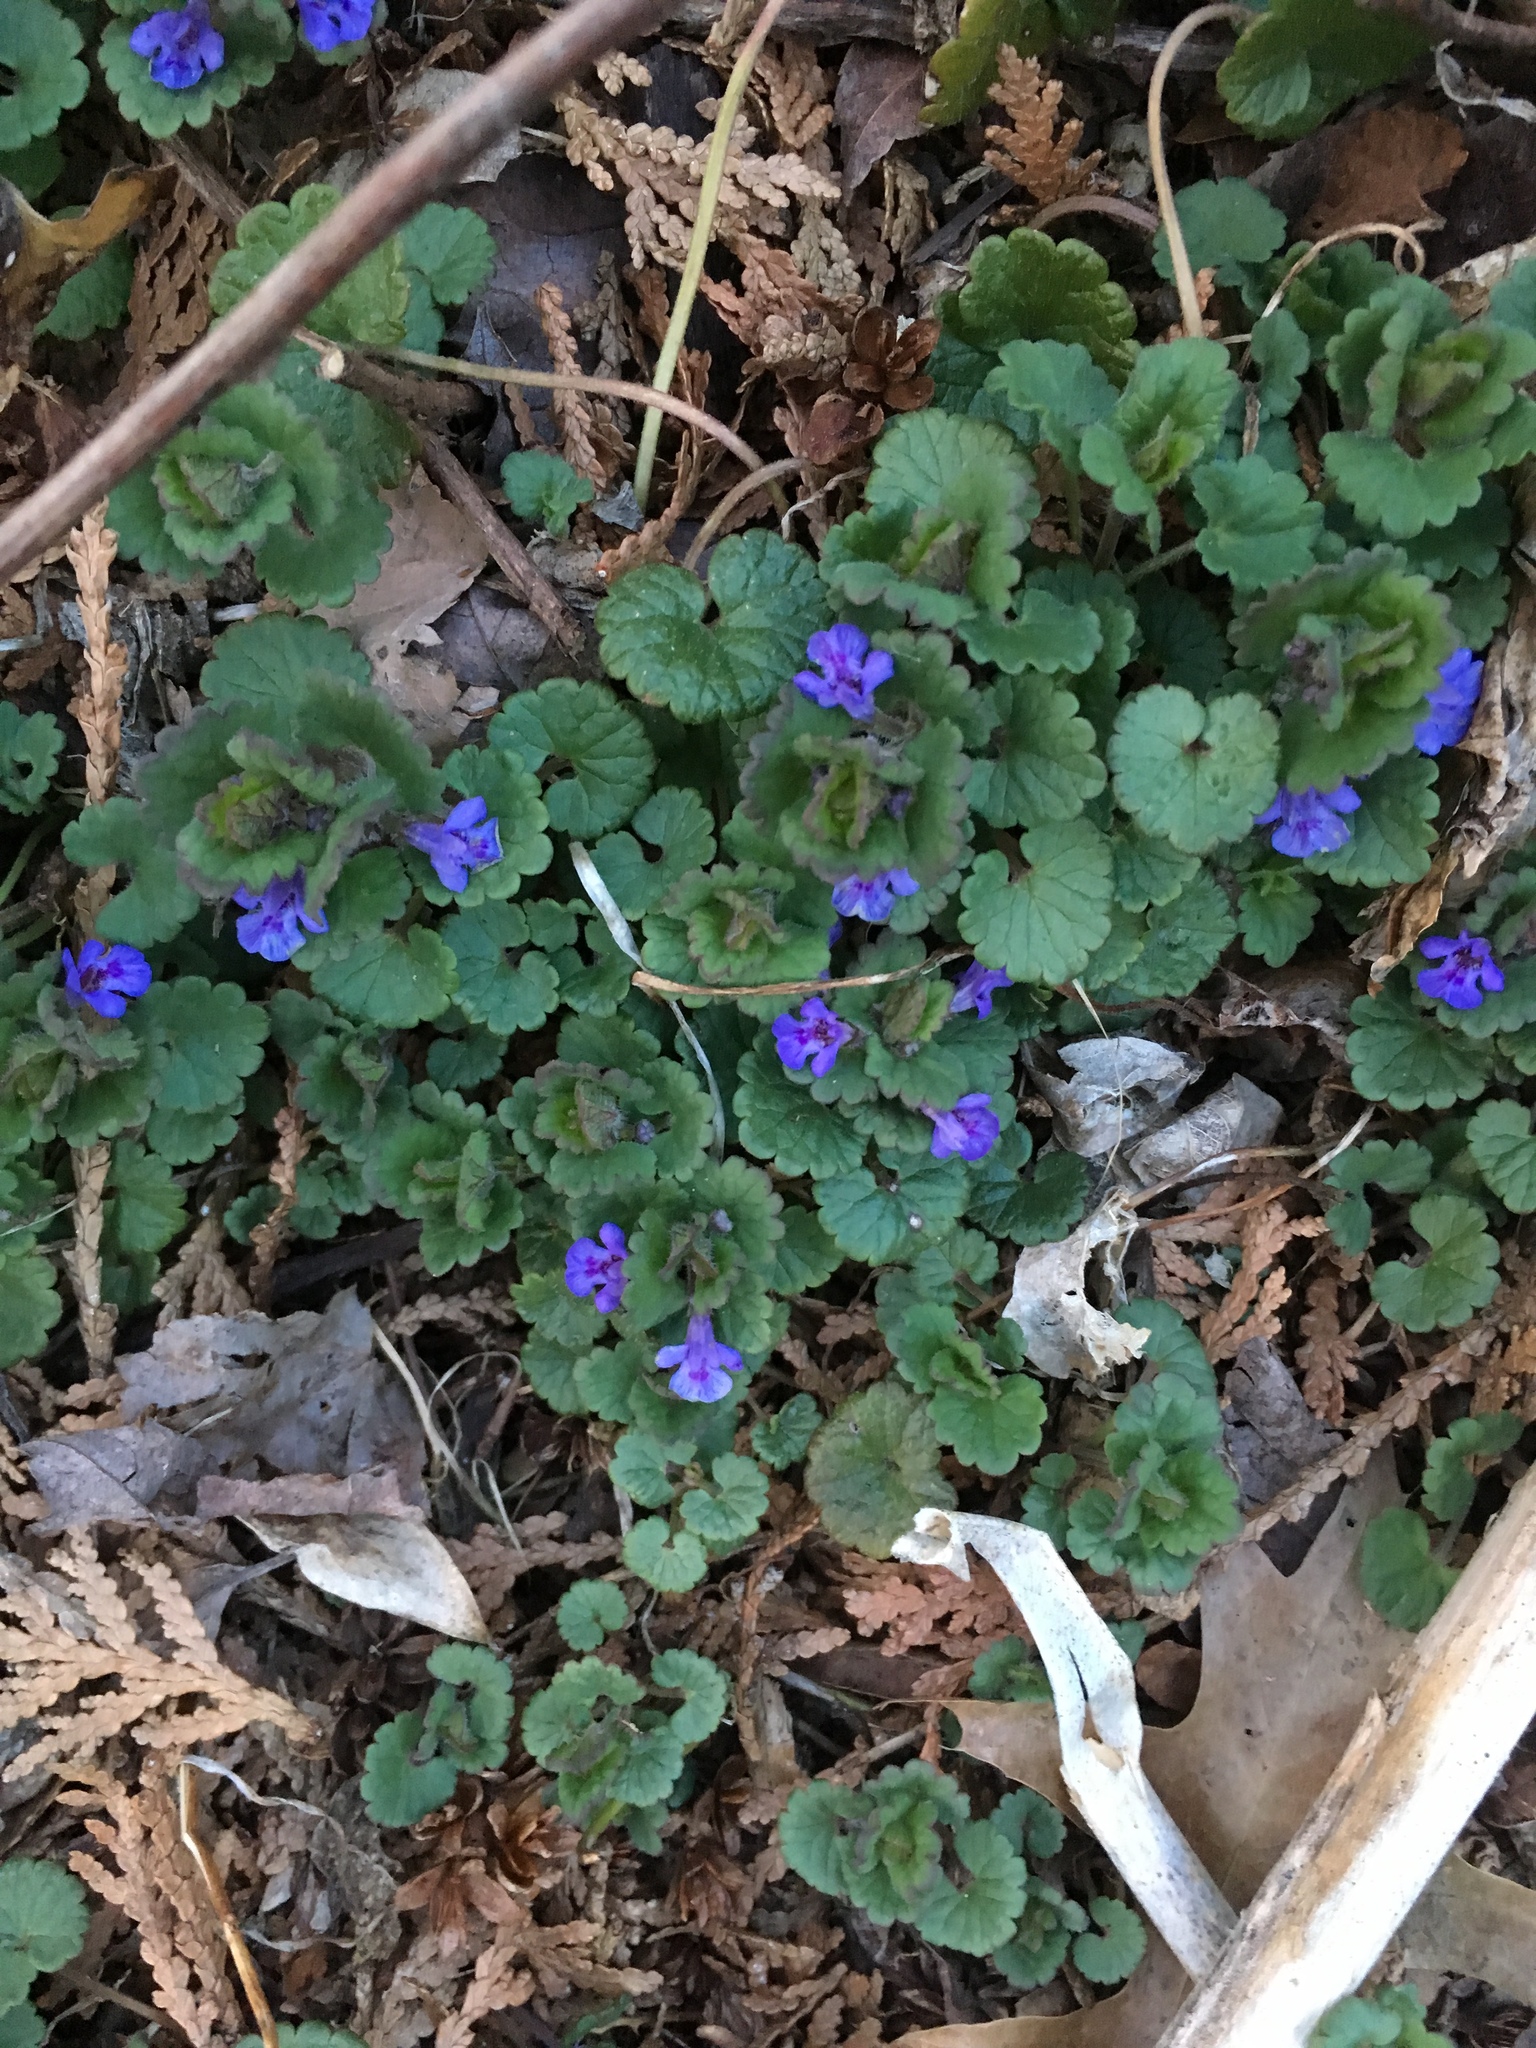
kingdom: Plantae
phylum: Tracheophyta
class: Magnoliopsida
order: Lamiales
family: Lamiaceae
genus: Glechoma
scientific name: Glechoma hederacea
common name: Ground ivy
